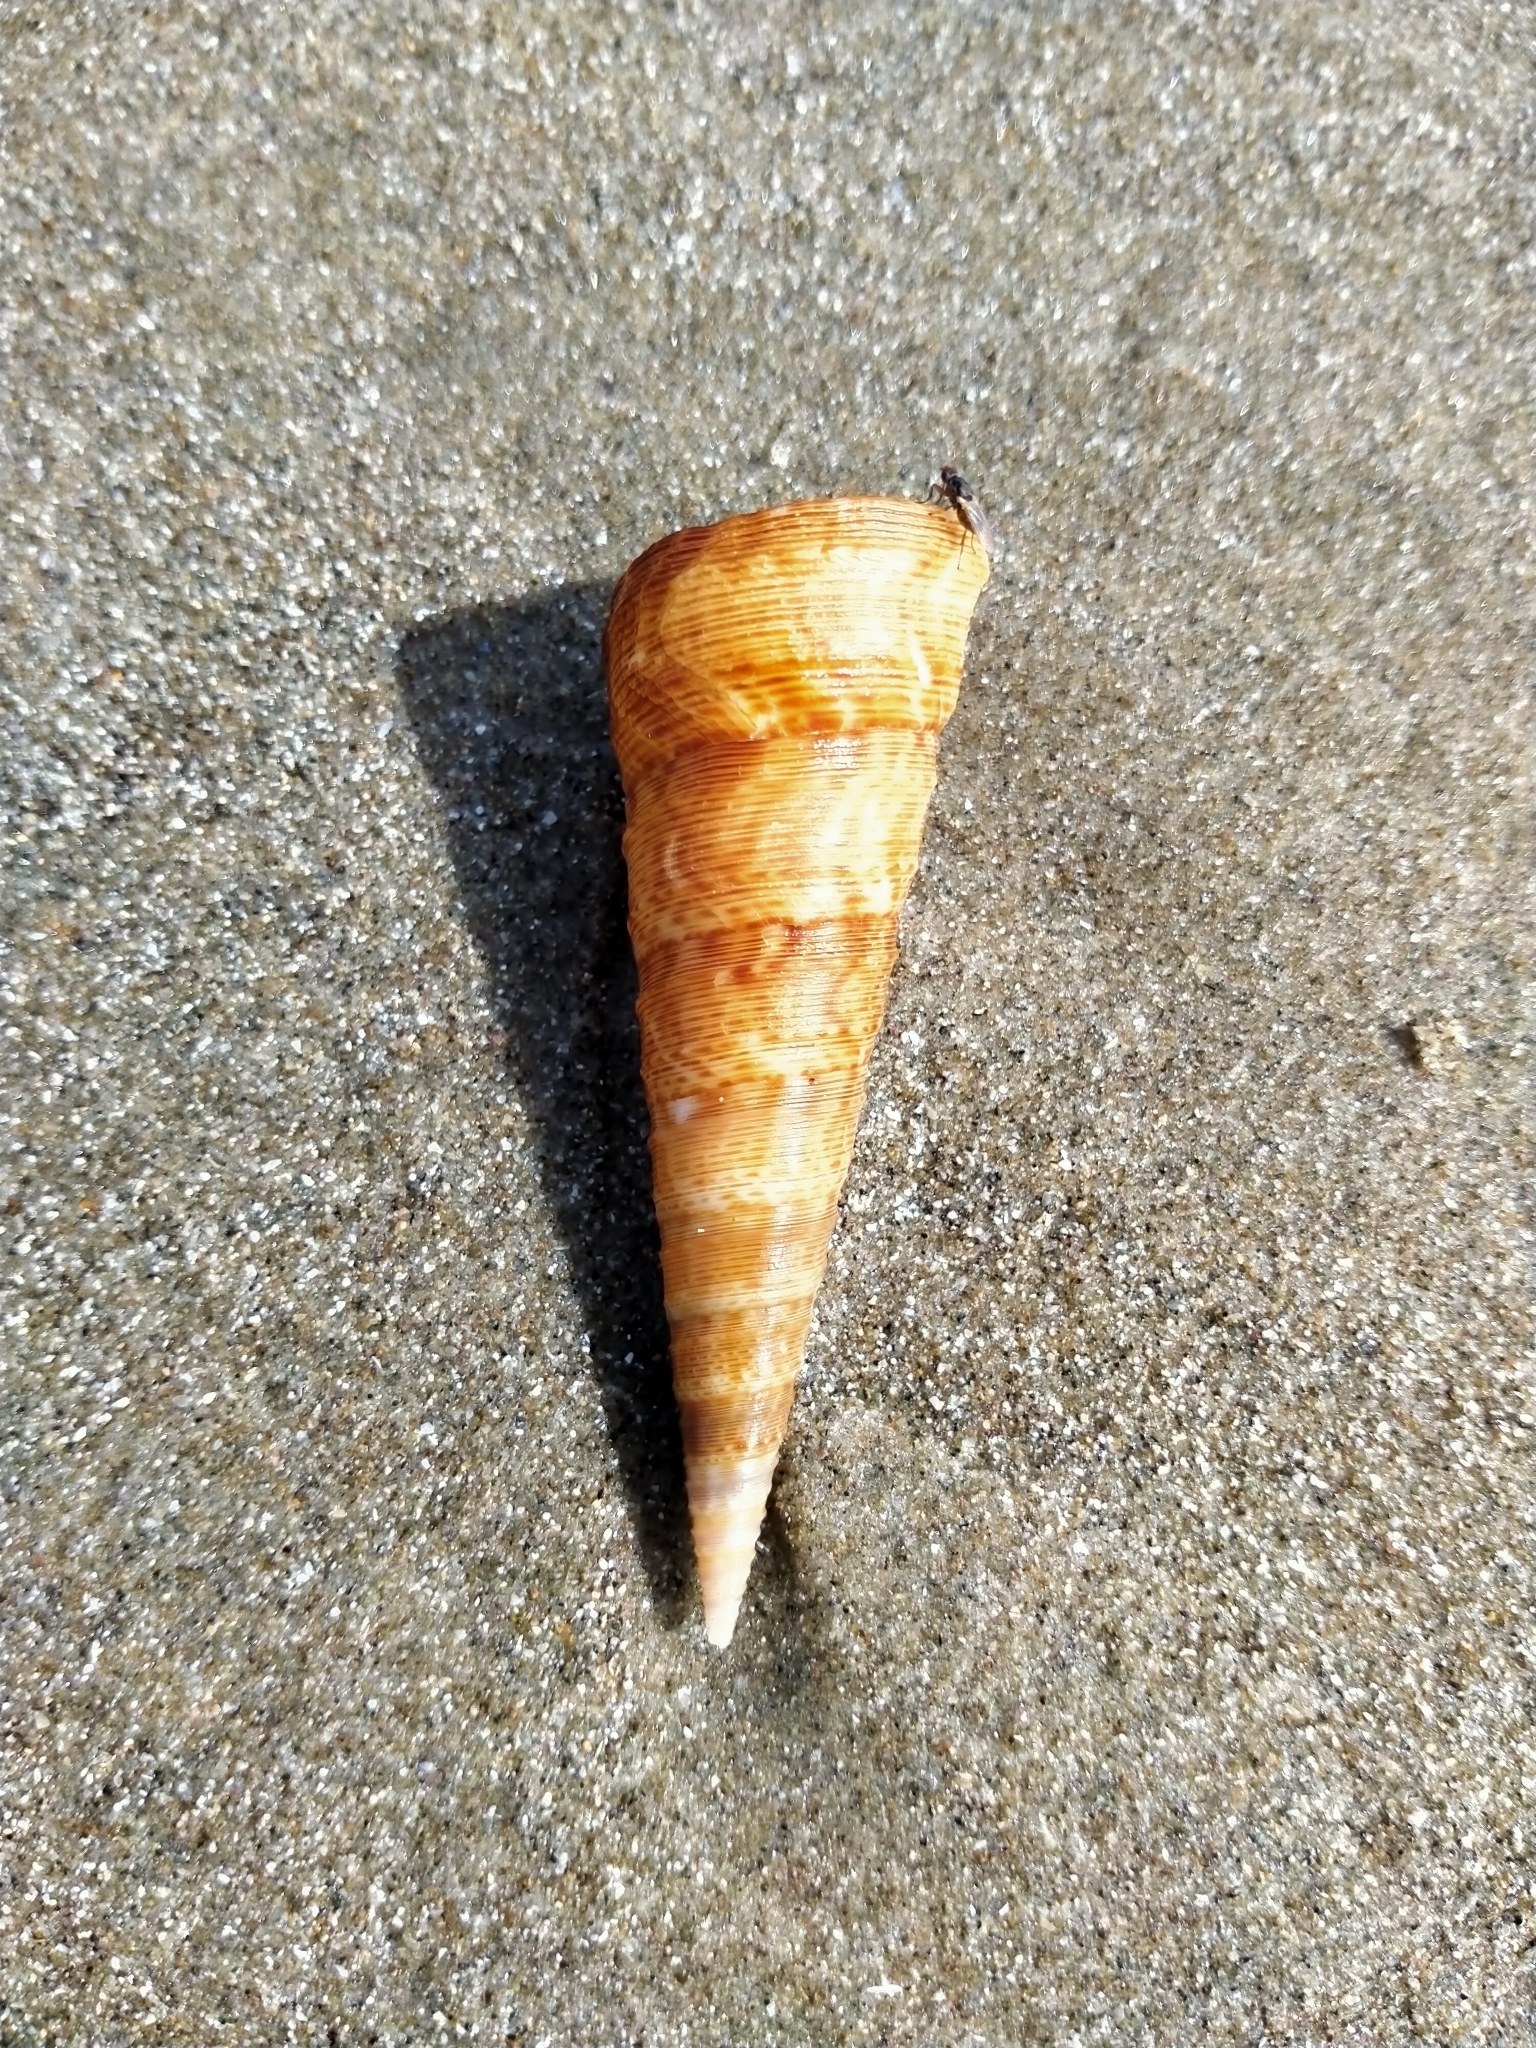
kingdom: Animalia
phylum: Mollusca
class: Gastropoda
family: Turritellidae
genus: Maoricolpus
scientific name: Maoricolpus roseus
